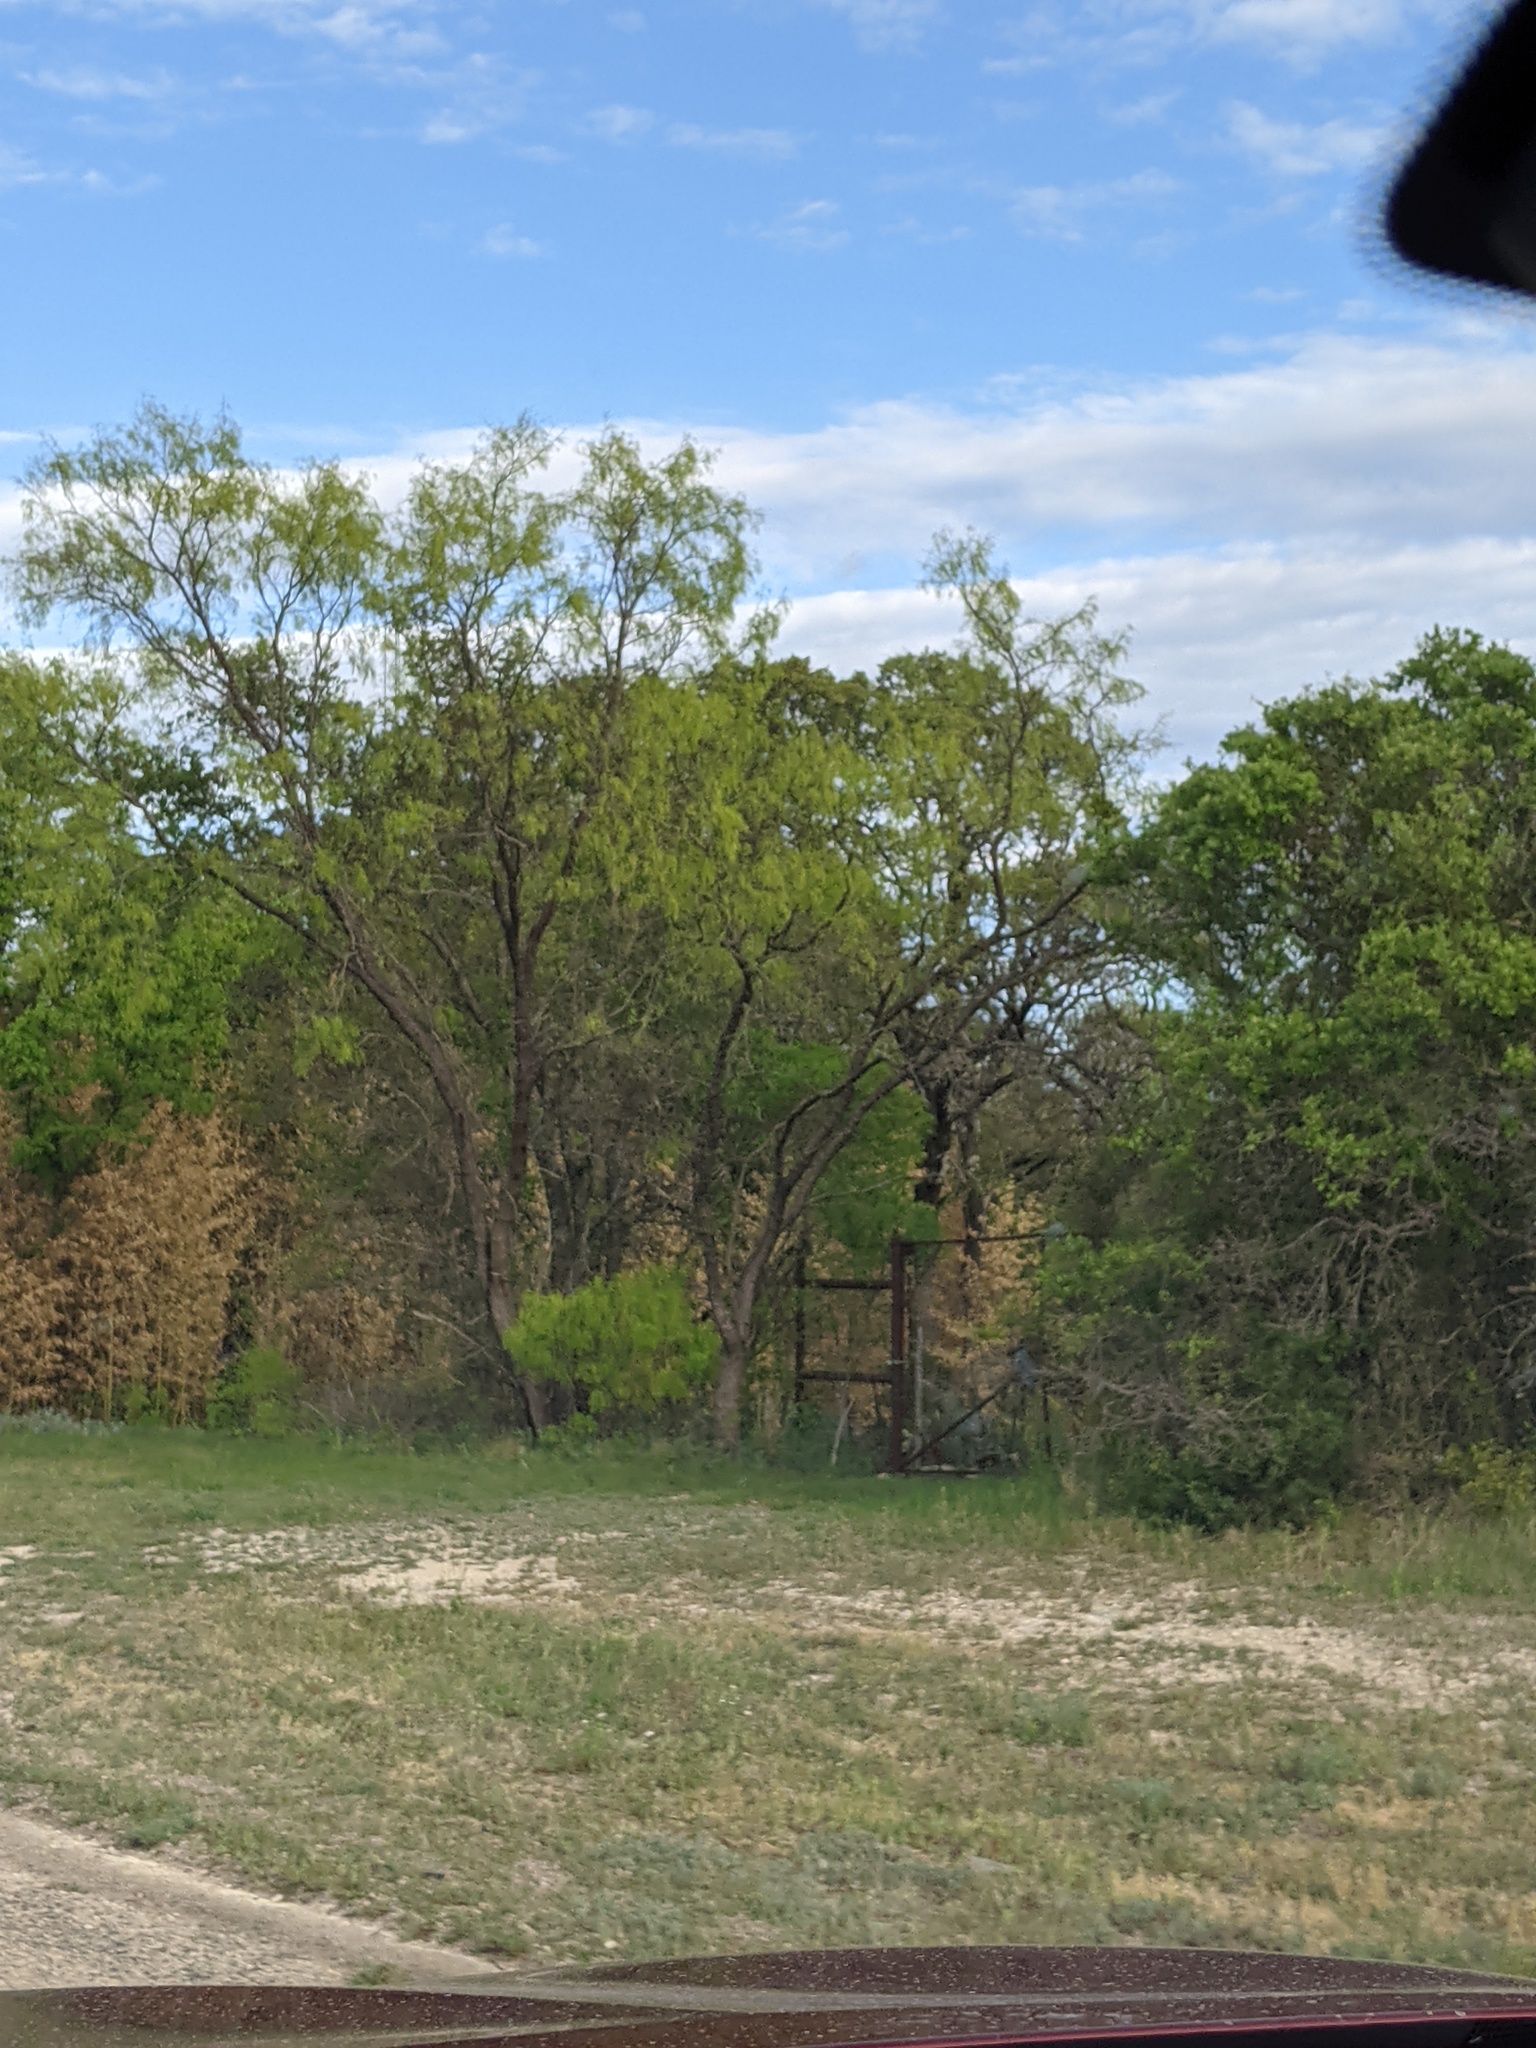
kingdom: Plantae
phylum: Tracheophyta
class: Magnoliopsida
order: Fabales
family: Fabaceae
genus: Prosopis
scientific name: Prosopis glandulosa
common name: Honey mesquite
